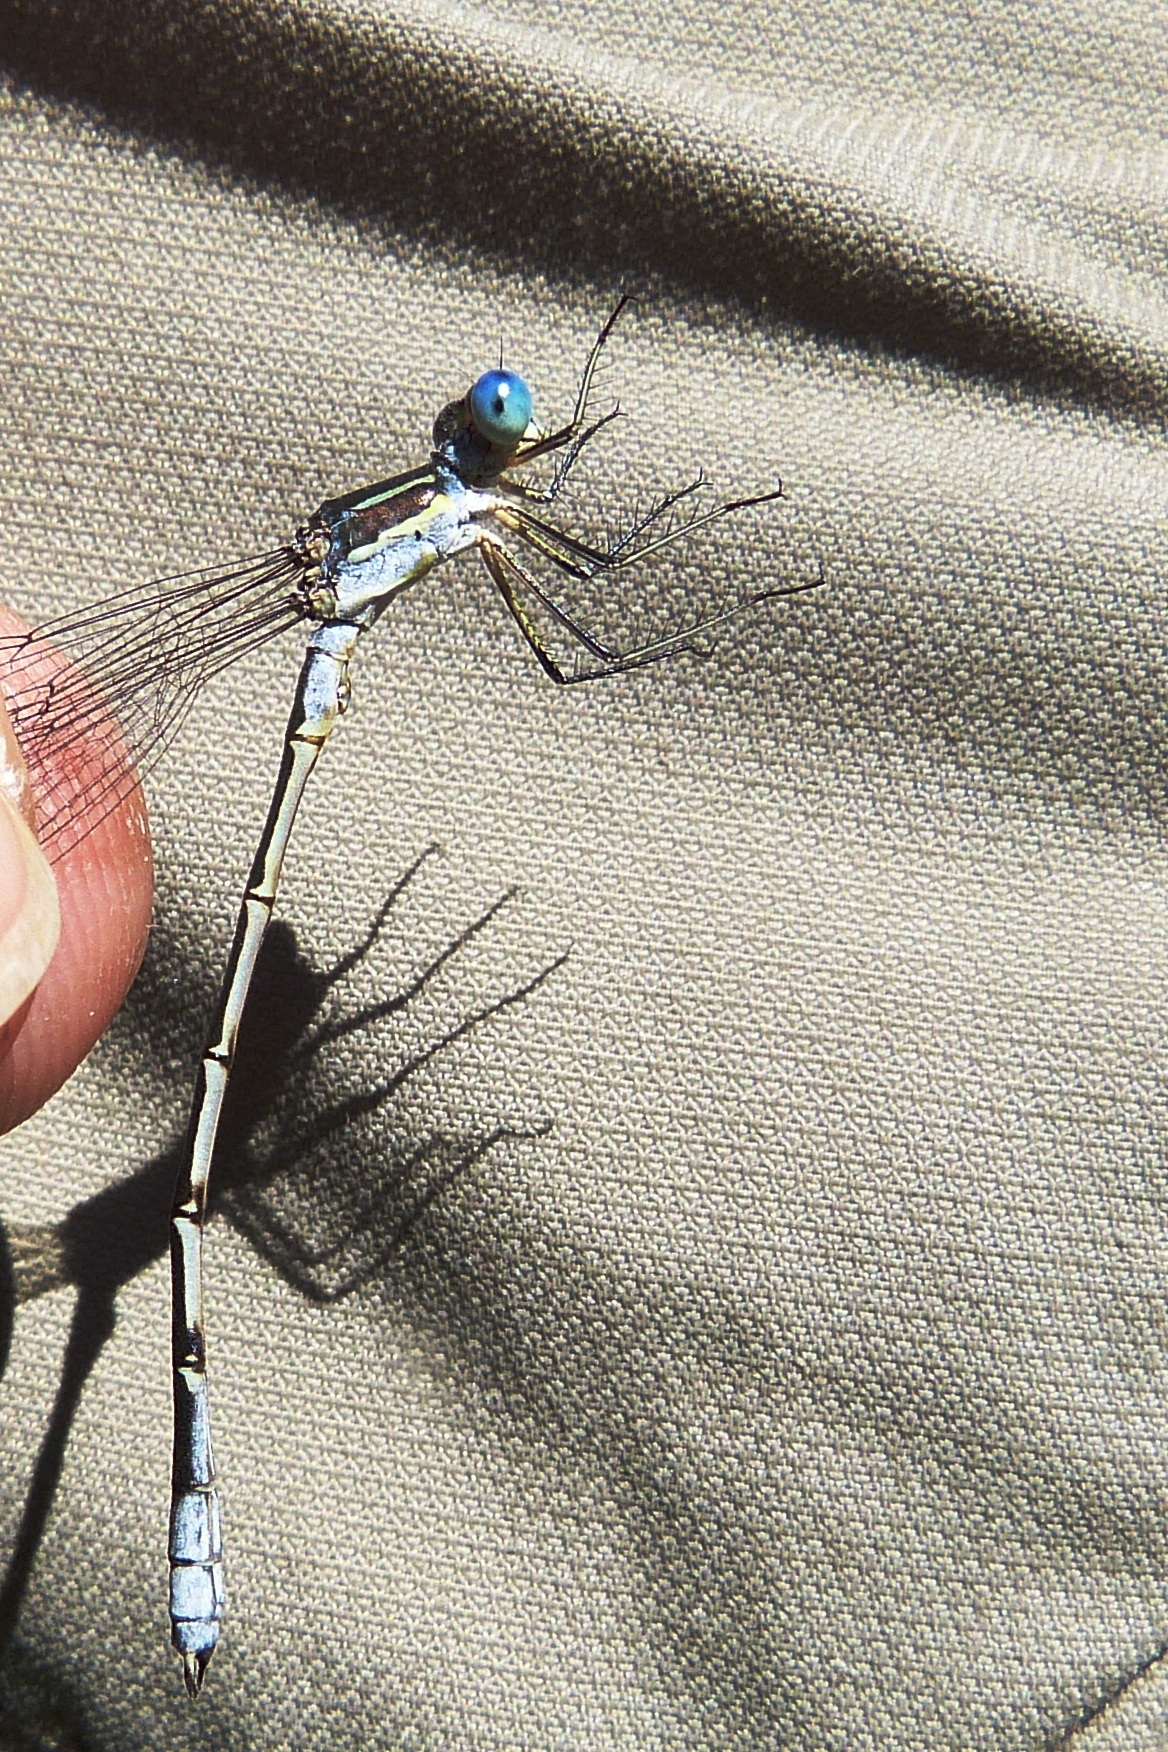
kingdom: Animalia
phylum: Arthropoda
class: Insecta
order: Odonata
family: Lestidae
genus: Lestes
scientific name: Lestes unguiculatus
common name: Lyre-tipped spreadwing
